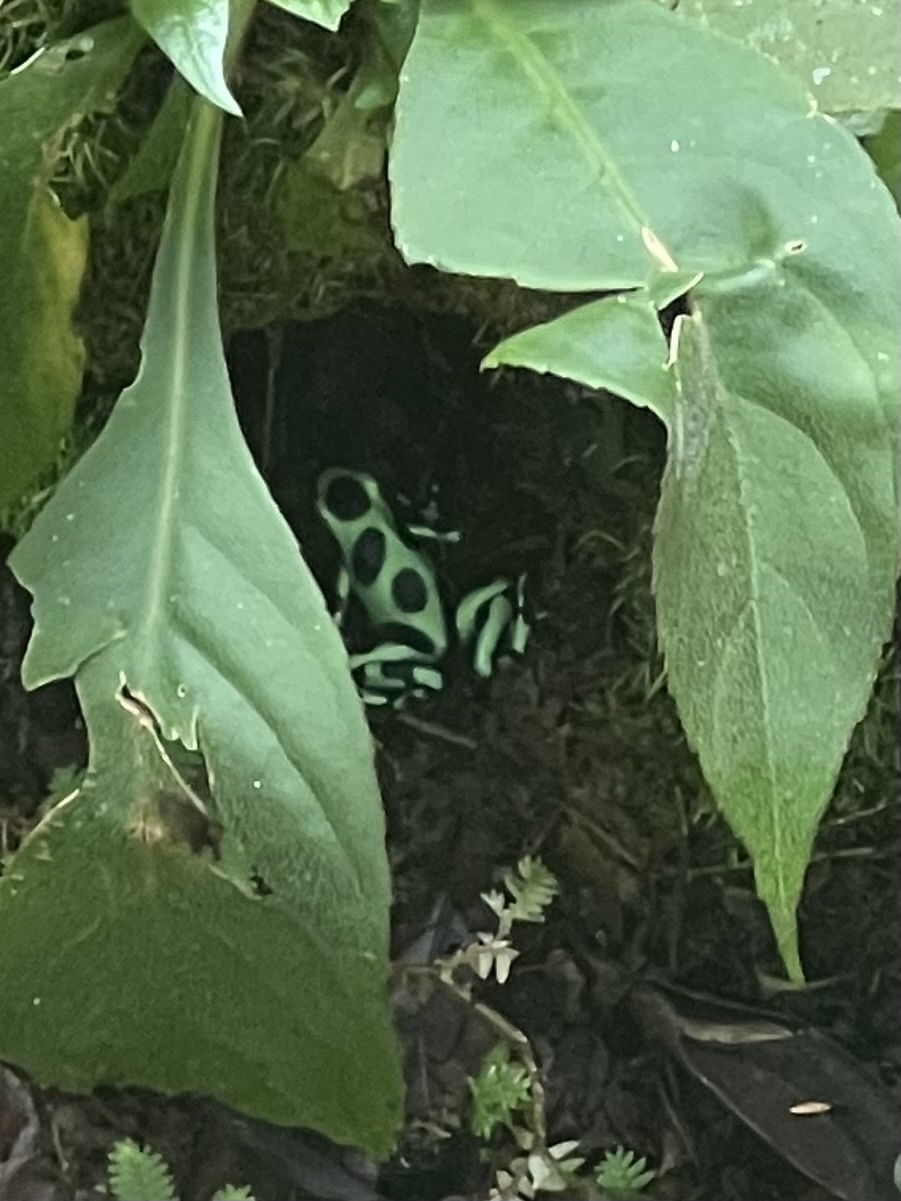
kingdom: Animalia
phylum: Chordata
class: Amphibia
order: Anura
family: Dendrobatidae
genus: Dendrobates
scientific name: Dendrobates auratus
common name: Green and black poison dart frog
